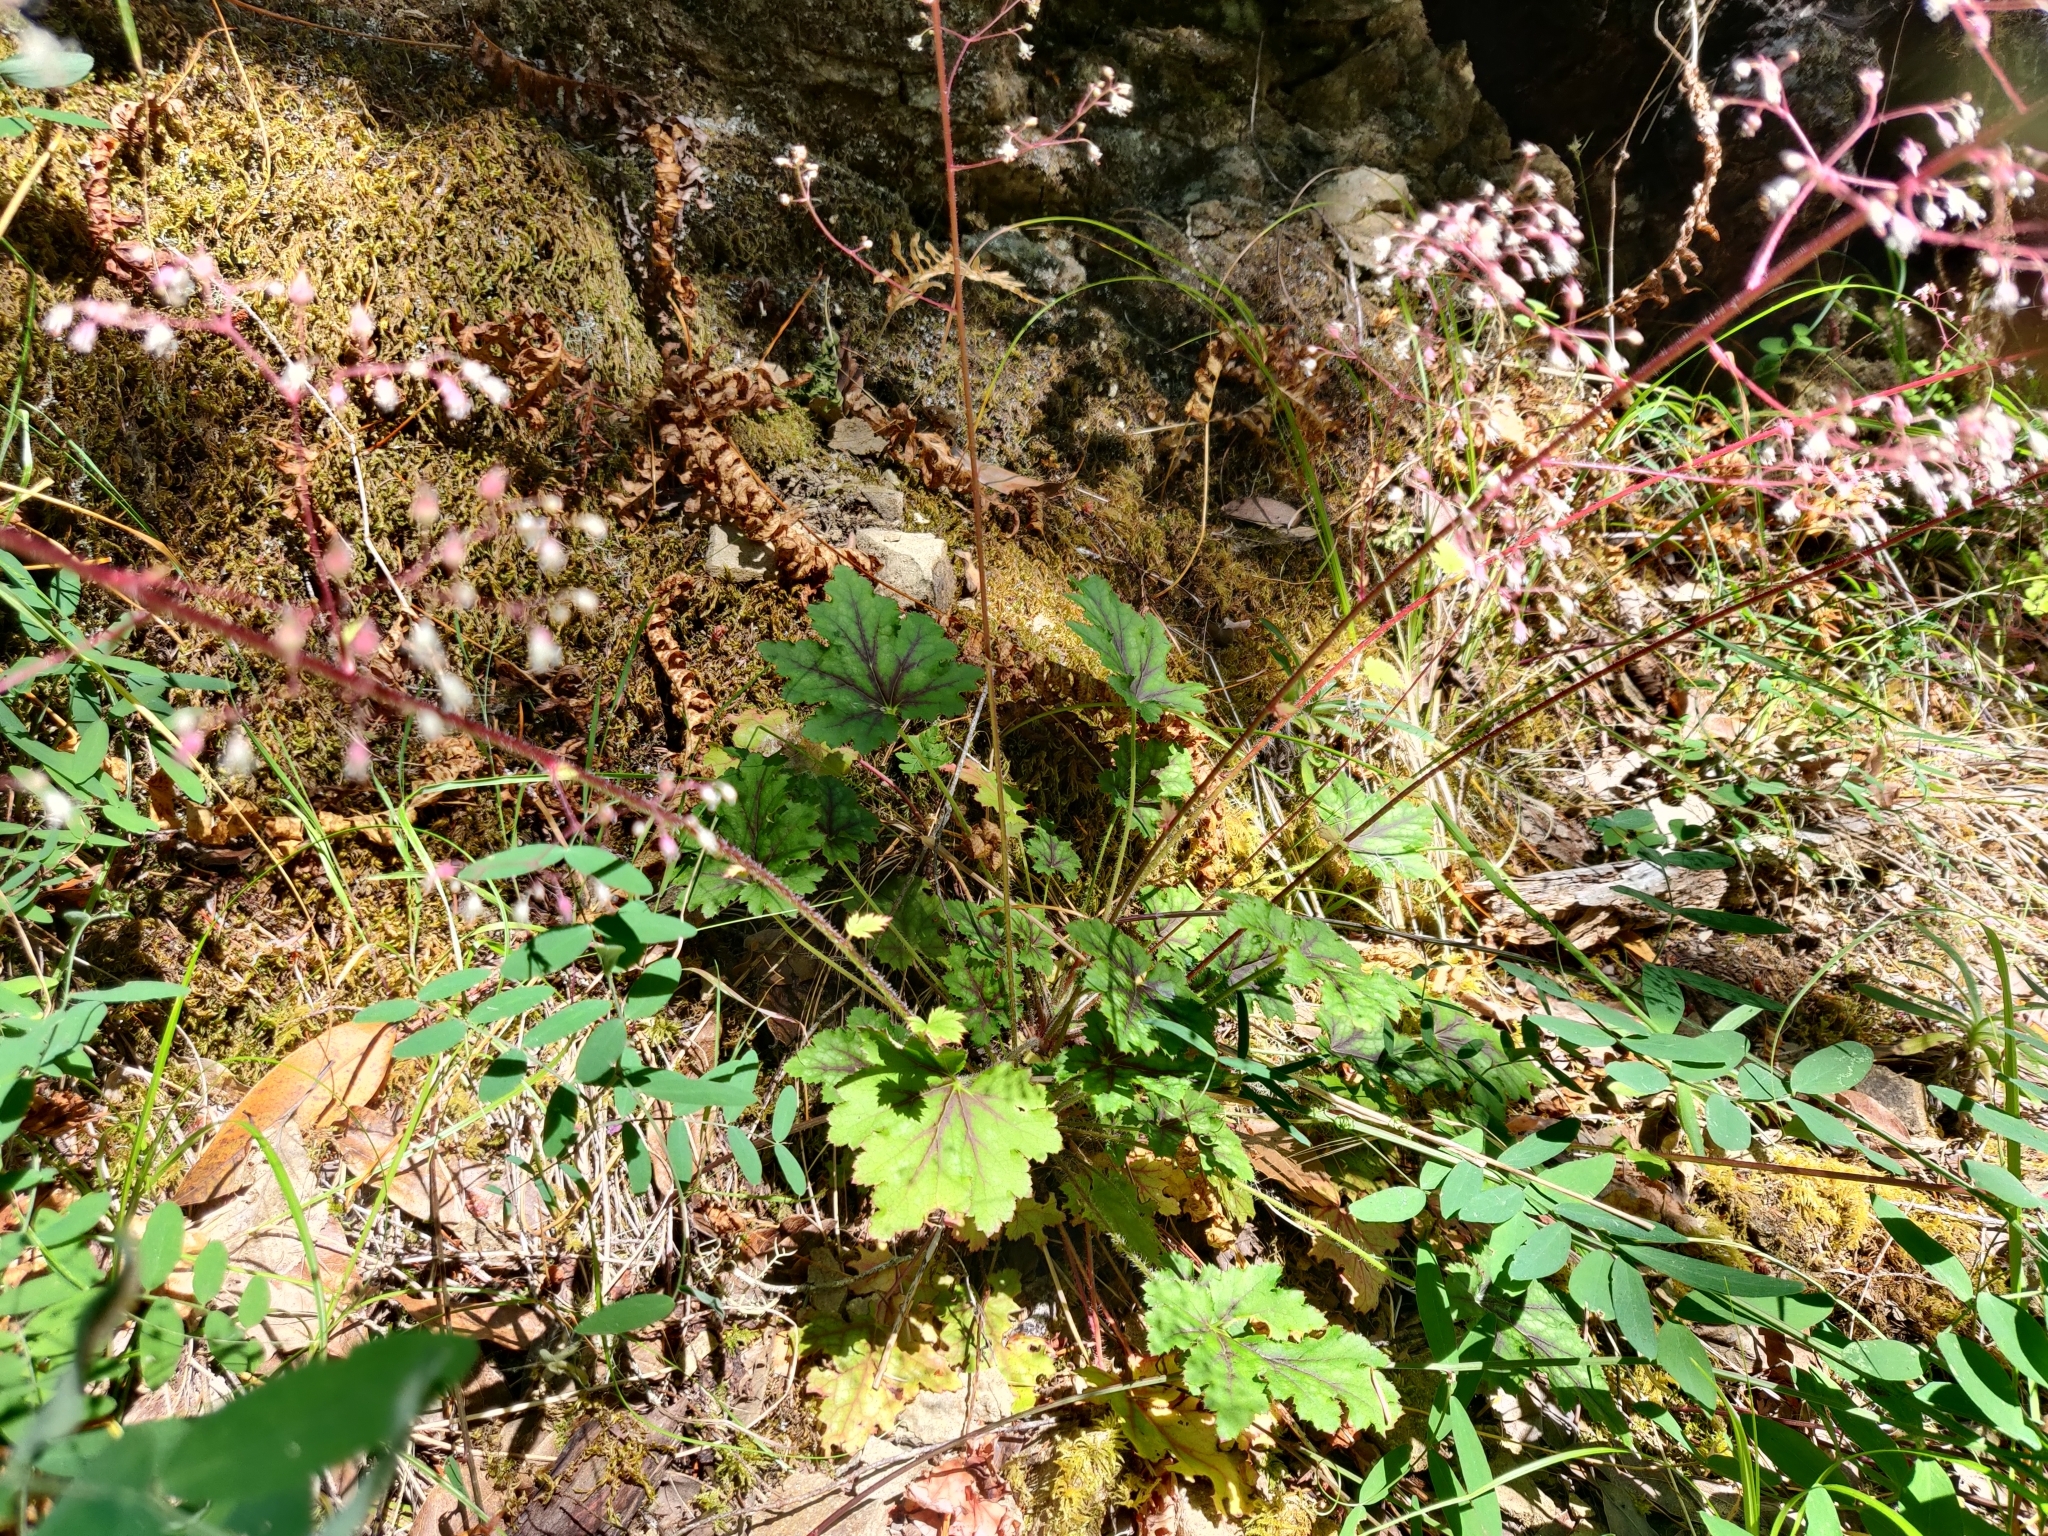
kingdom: Plantae
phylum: Tracheophyta
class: Magnoliopsida
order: Saxifragales
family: Saxifragaceae
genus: Heuchera
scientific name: Heuchera micrantha
